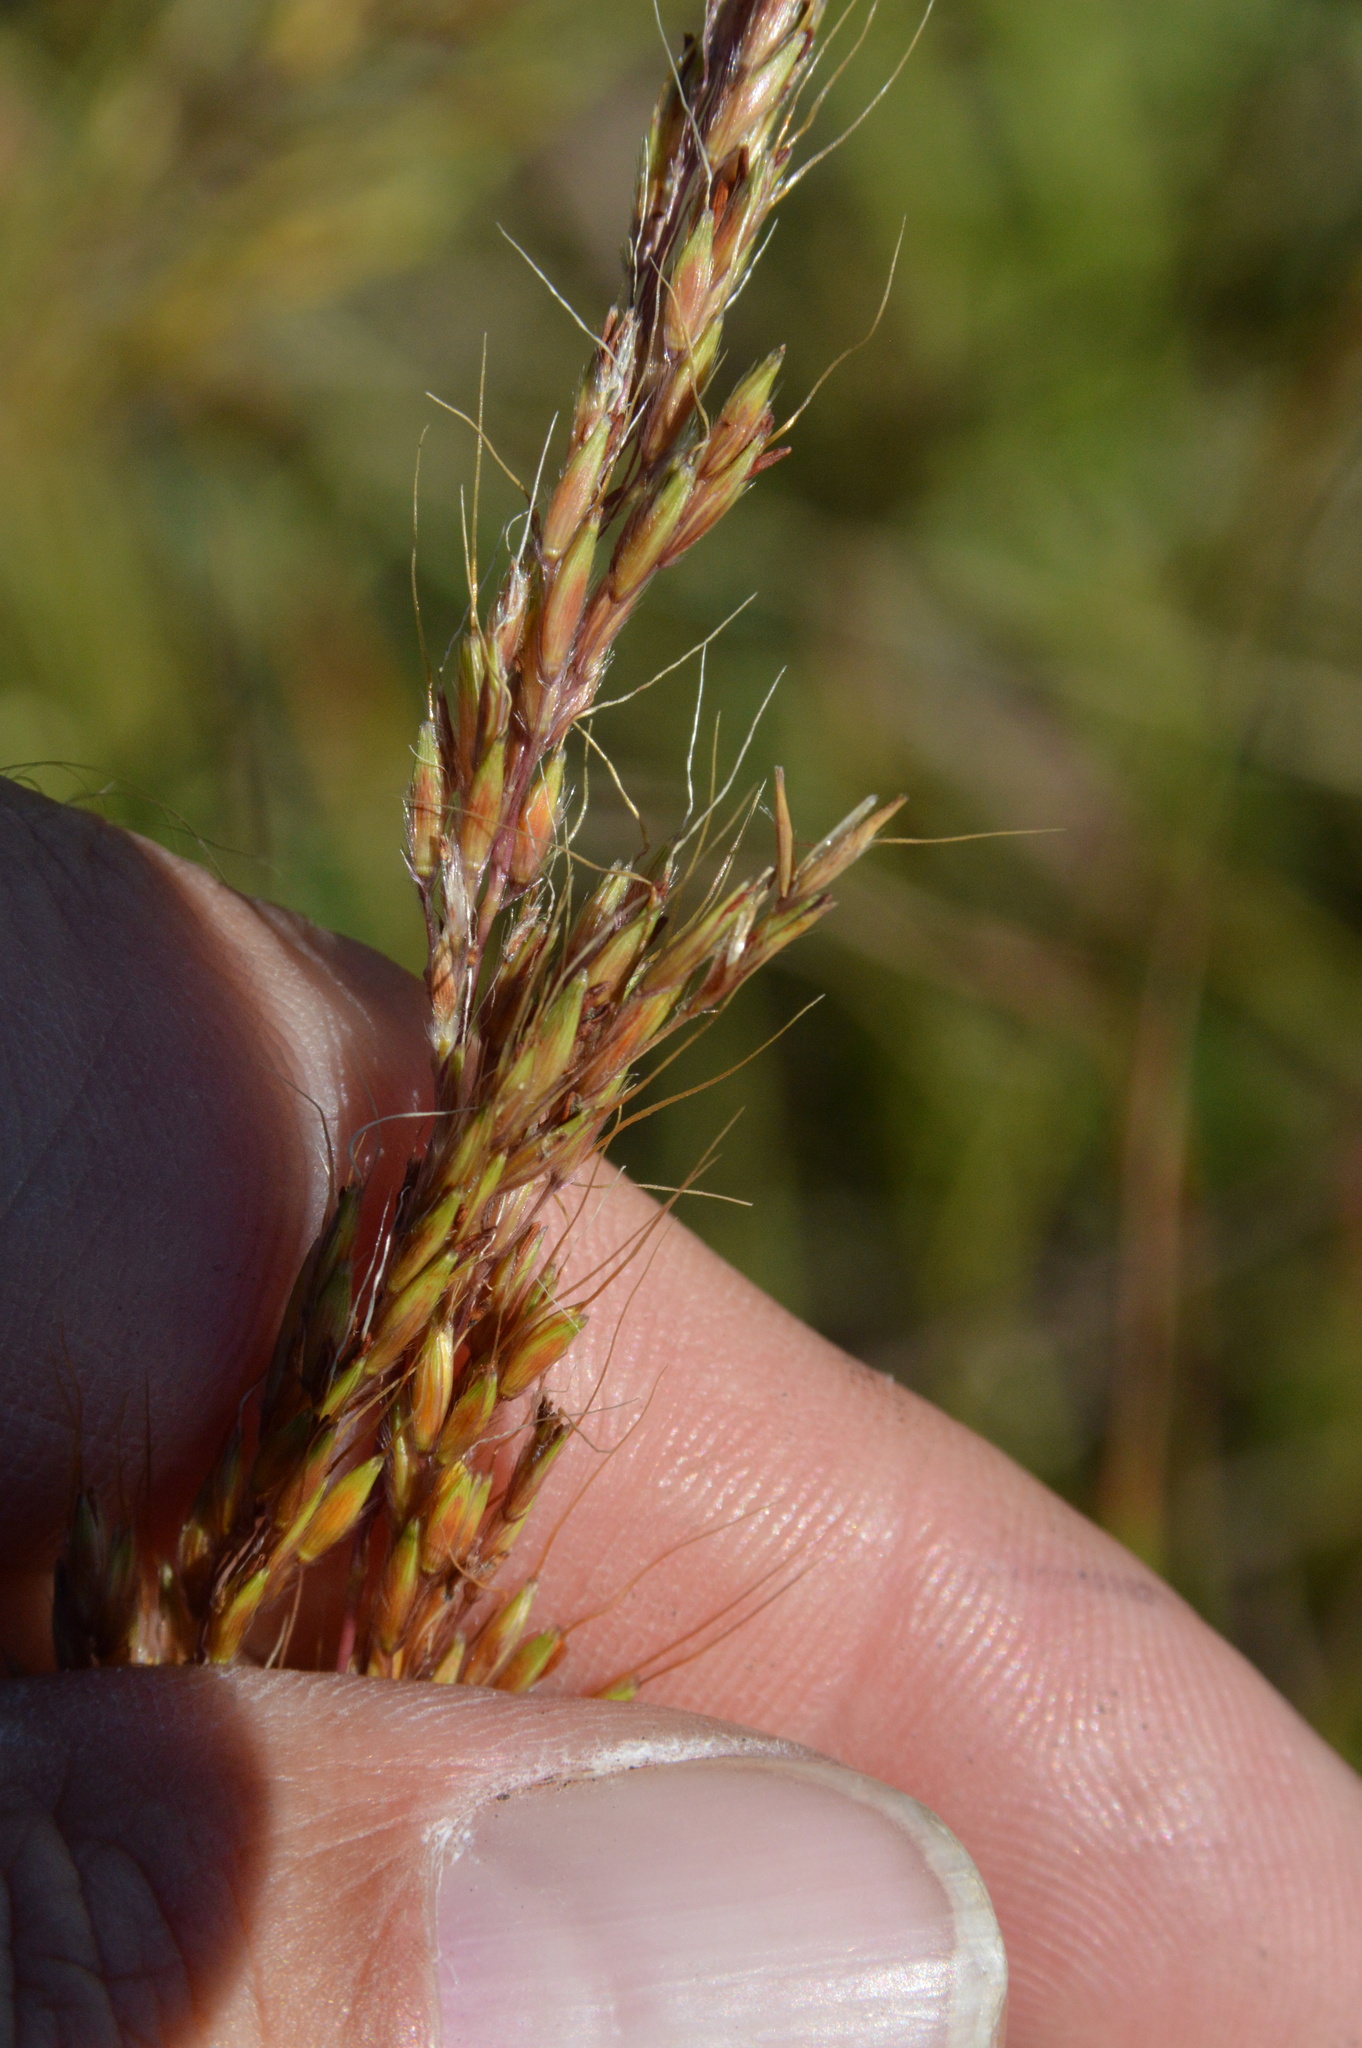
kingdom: Plantae
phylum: Tracheophyta
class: Liliopsida
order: Poales
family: Poaceae
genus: Sorghastrum
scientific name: Sorghastrum nutans
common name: Indian grass
